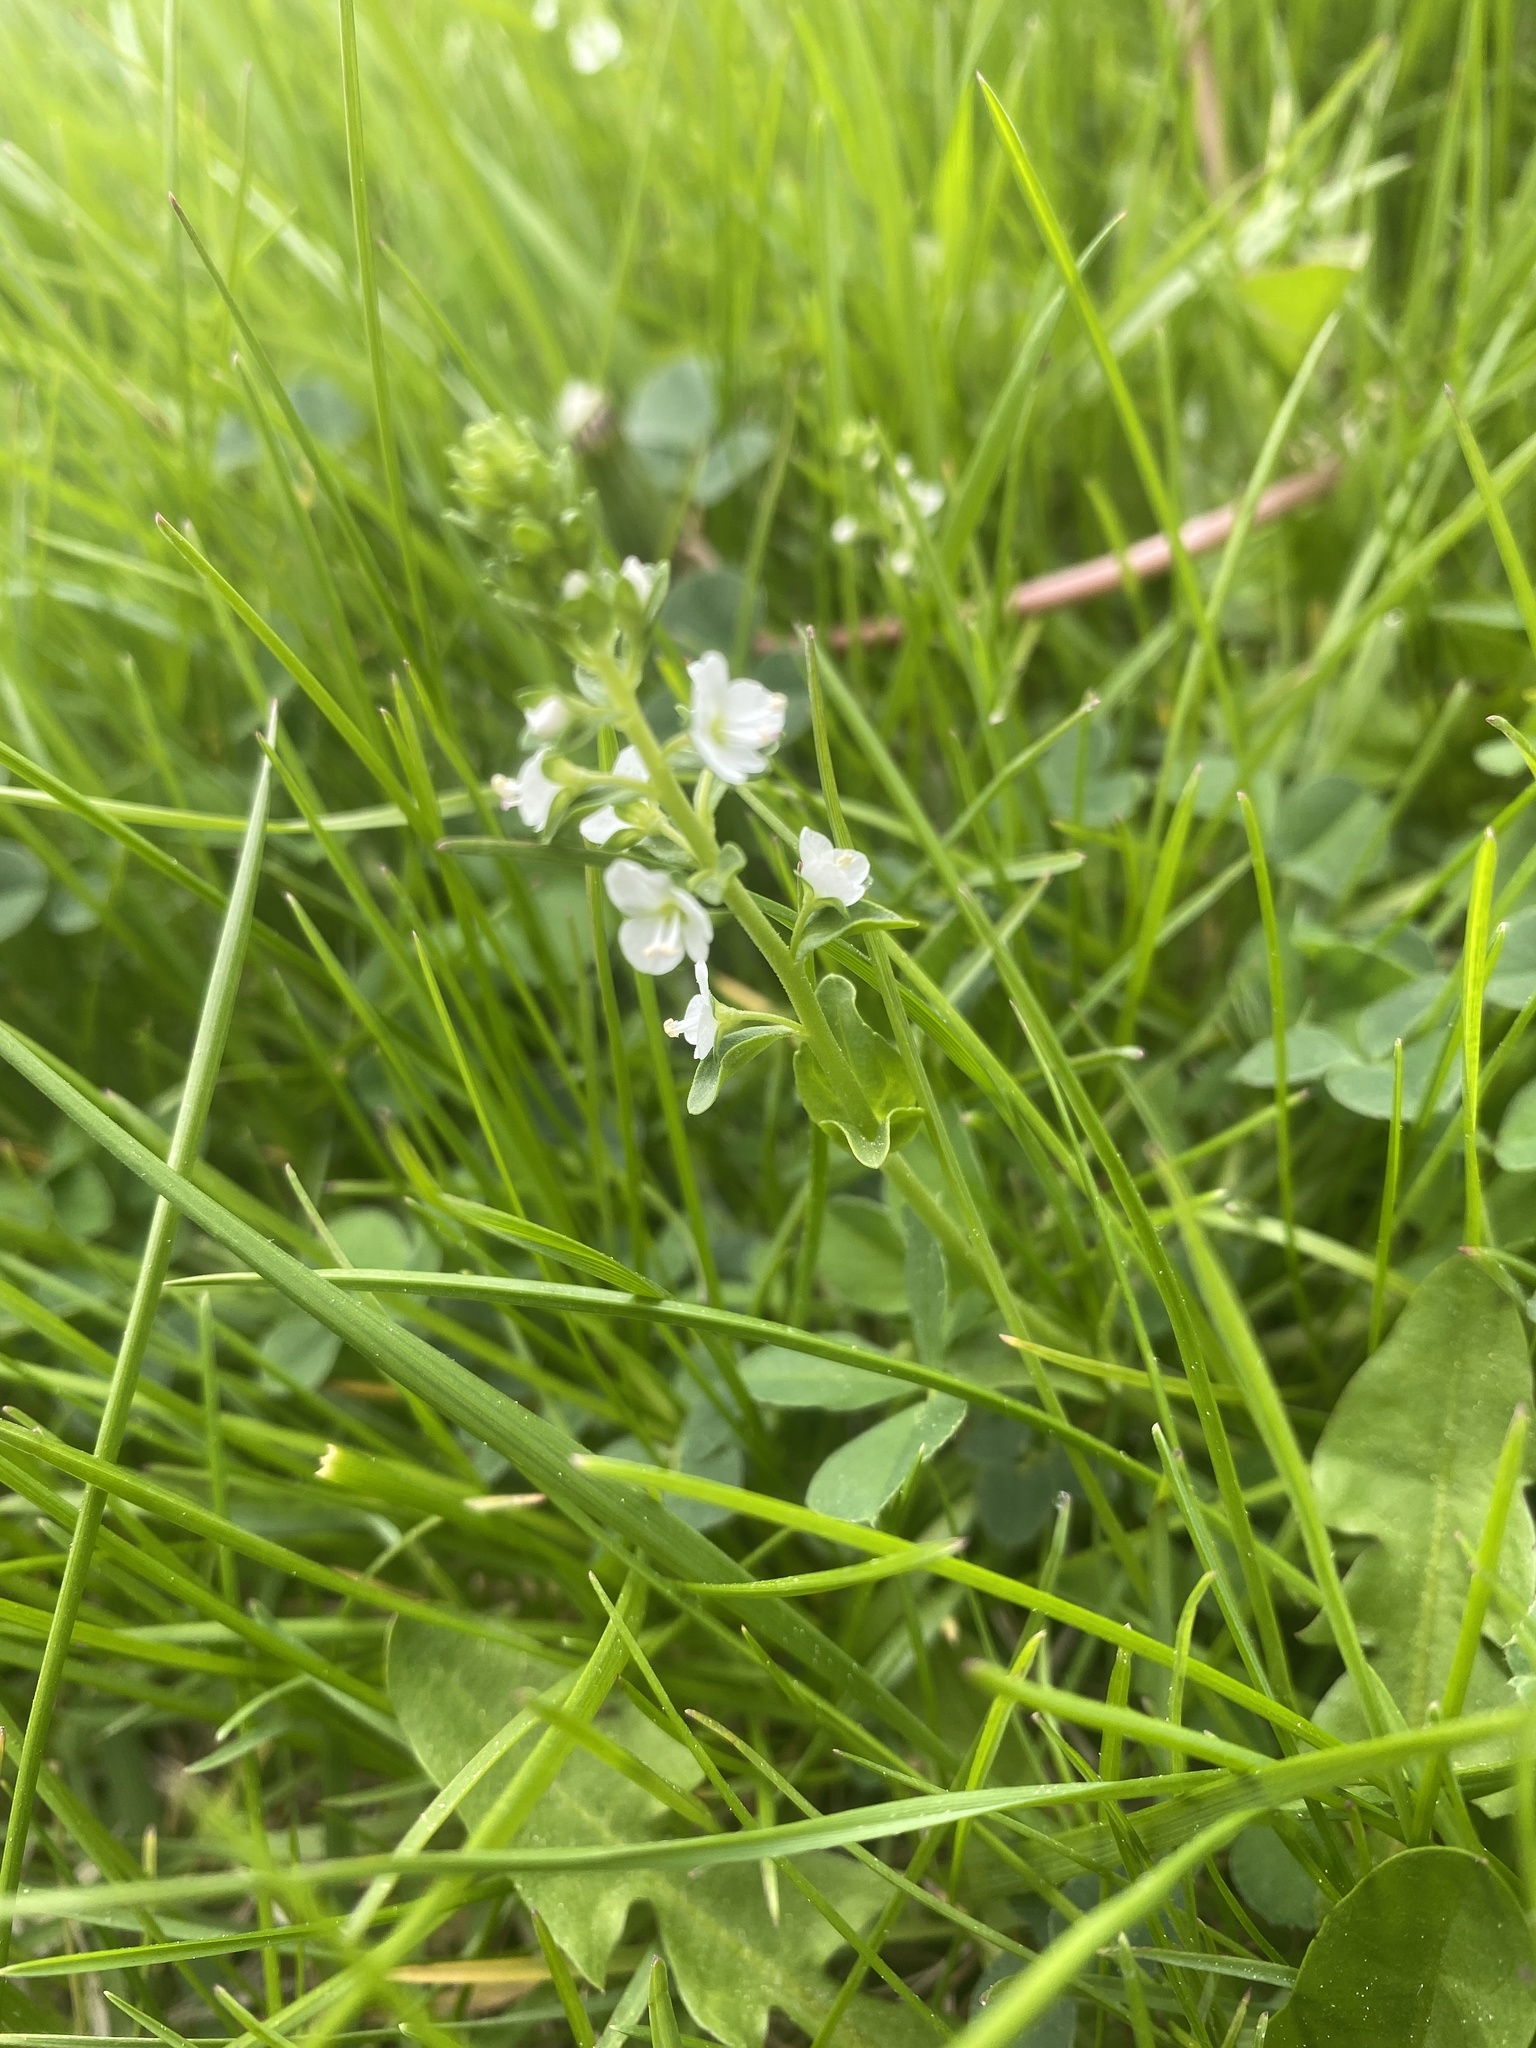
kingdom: Plantae
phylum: Tracheophyta
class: Magnoliopsida
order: Lamiales
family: Plantaginaceae
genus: Veronica
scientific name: Veronica serpyllifolia
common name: Thyme-leaved speedwell
